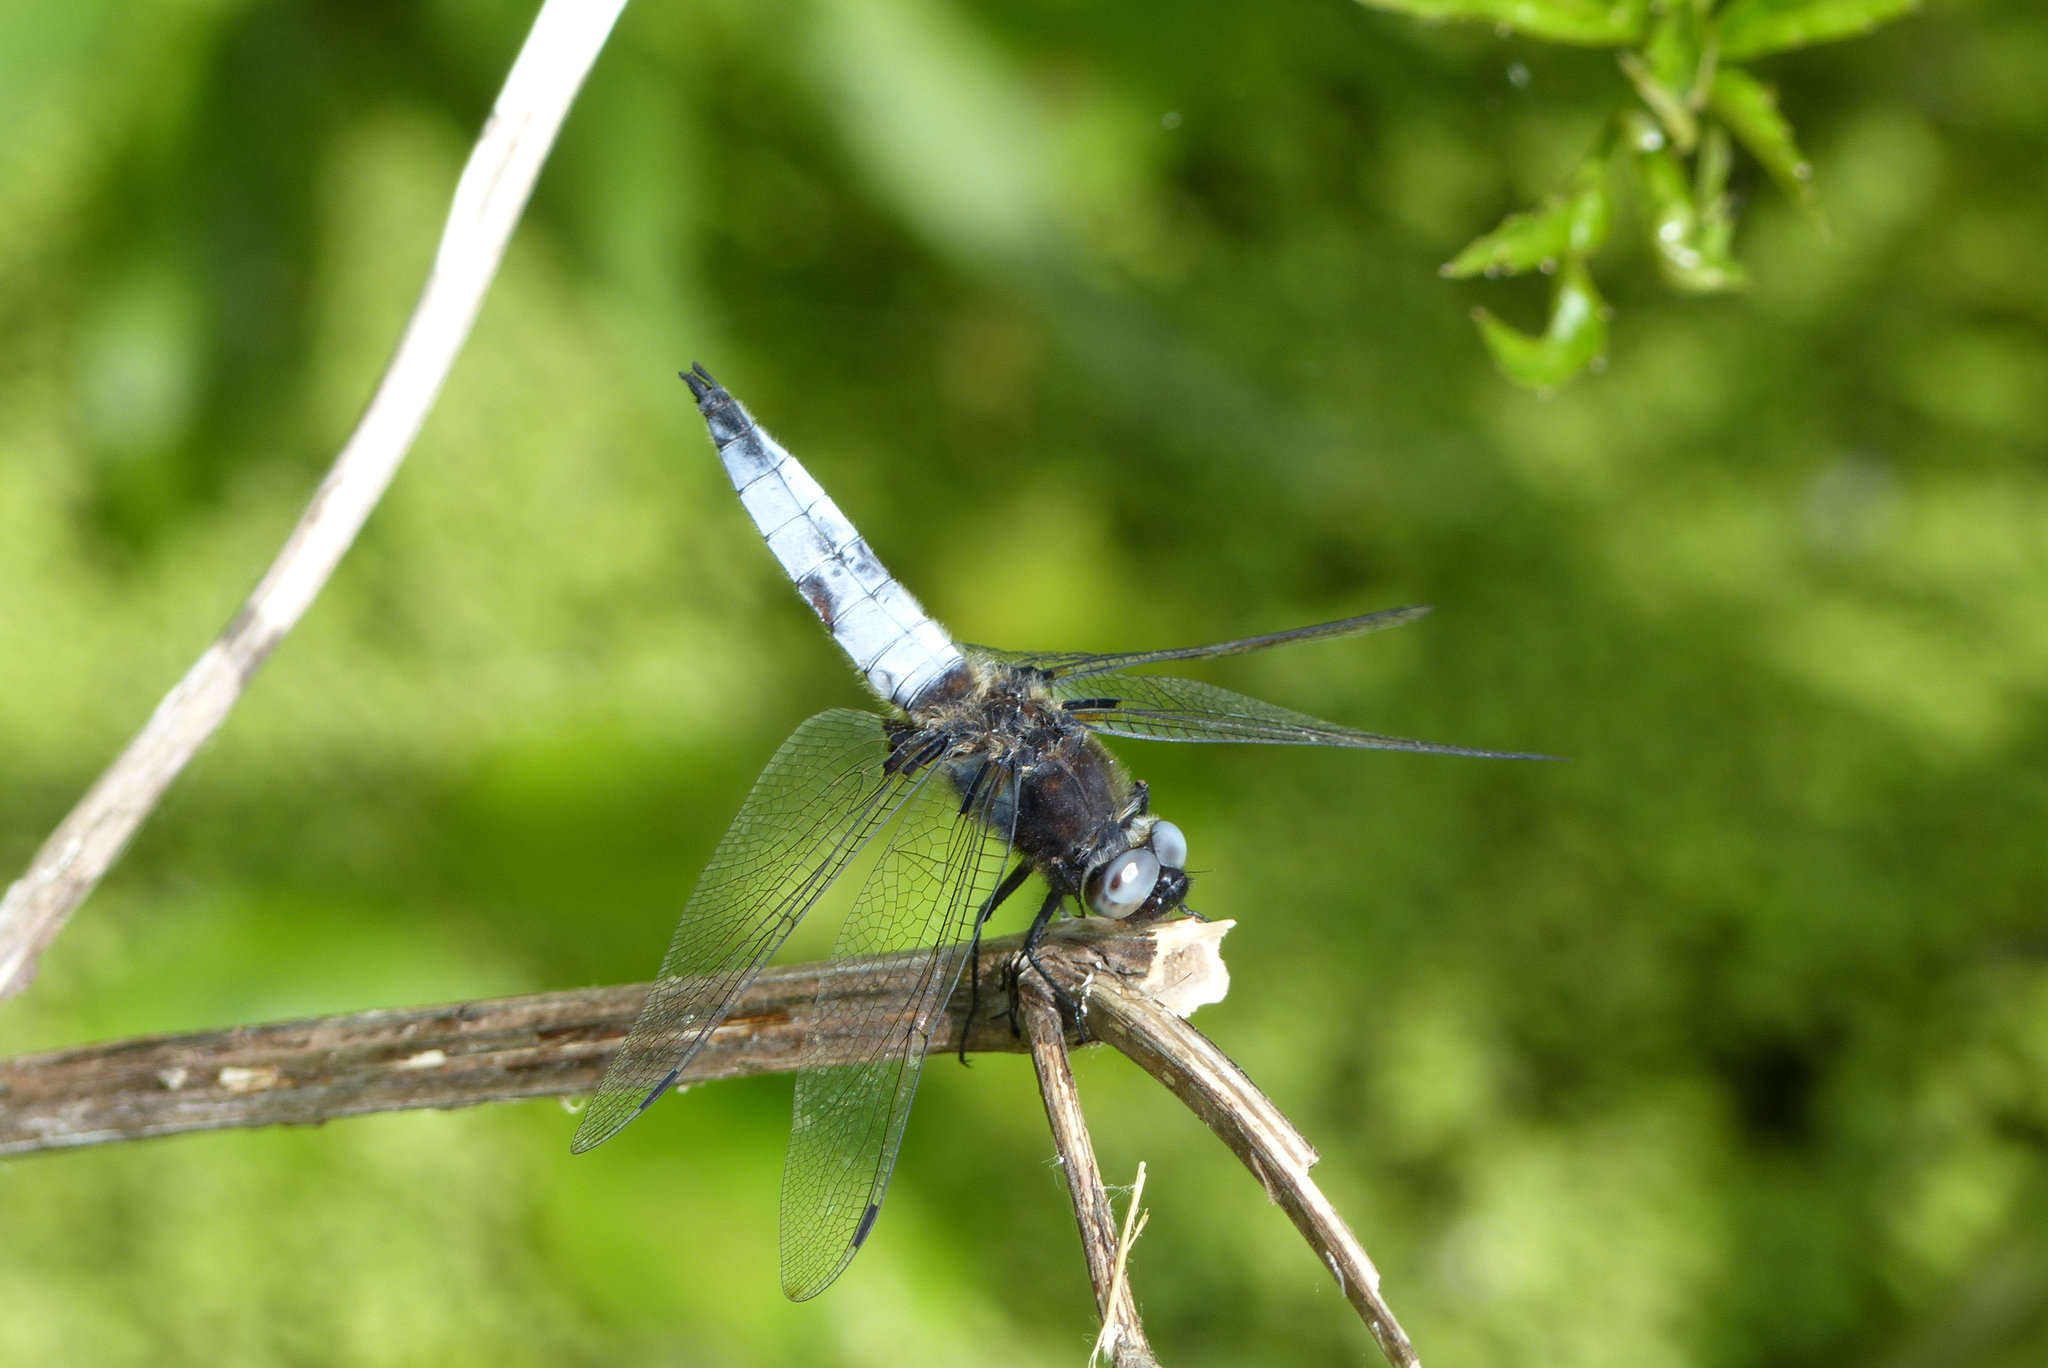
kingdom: Animalia
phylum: Arthropoda
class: Insecta
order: Odonata
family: Libellulidae
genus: Libellula
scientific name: Libellula fulva
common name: Blue chaser
